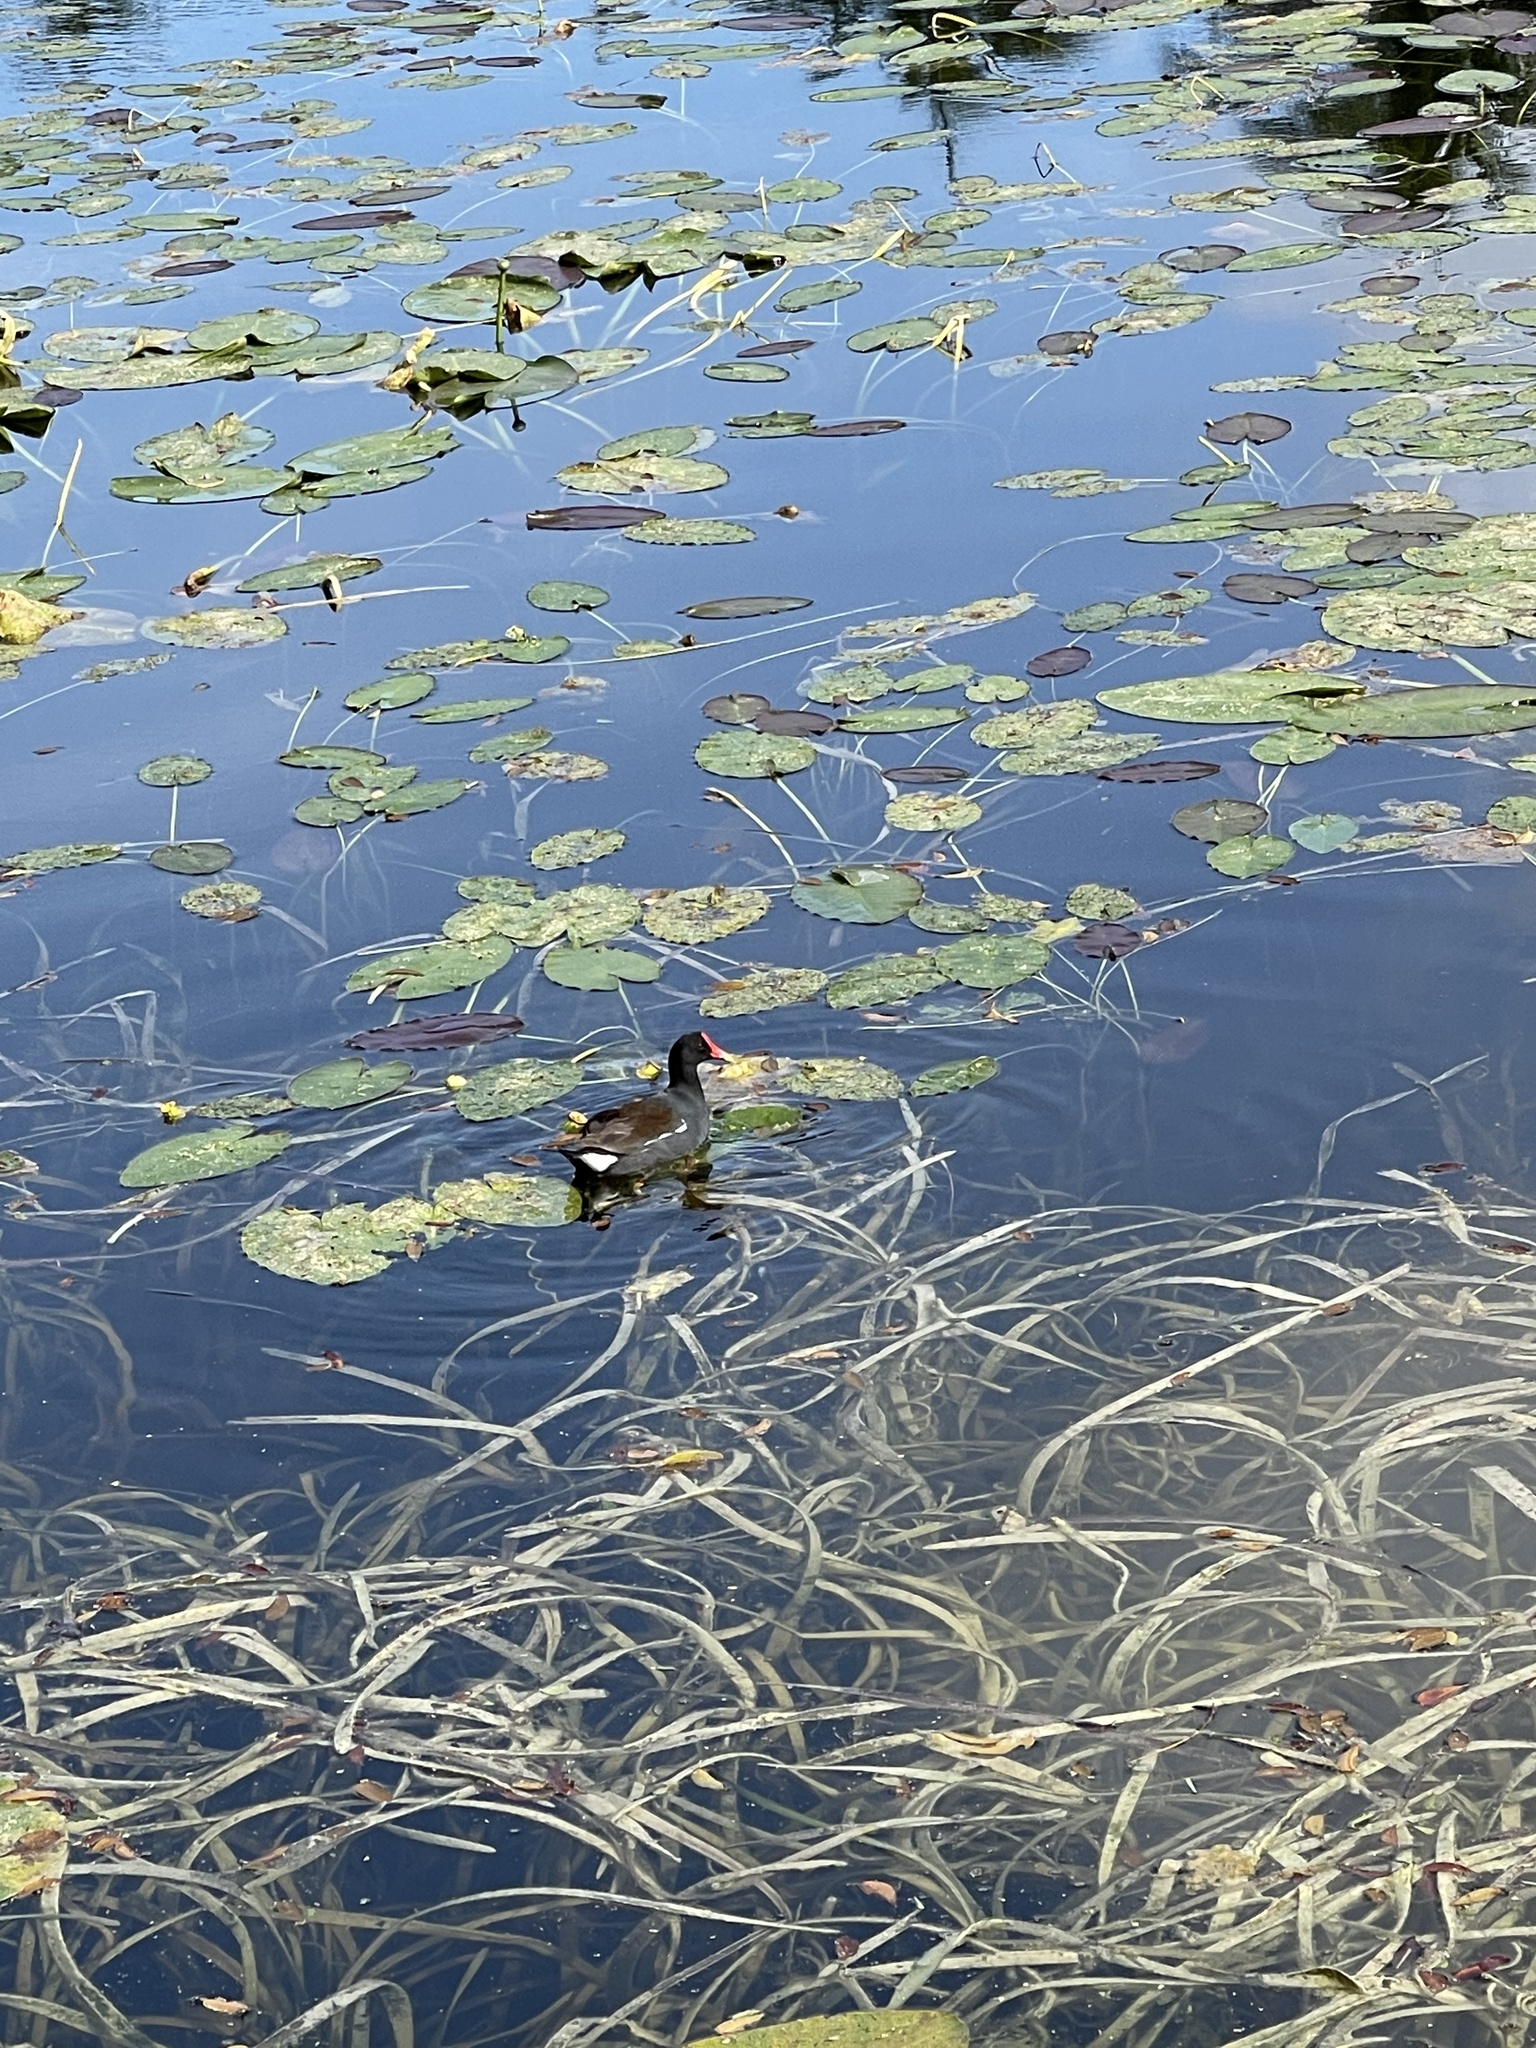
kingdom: Animalia
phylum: Chordata
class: Aves
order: Gruiformes
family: Rallidae
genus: Gallinula
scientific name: Gallinula chloropus
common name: Common moorhen
